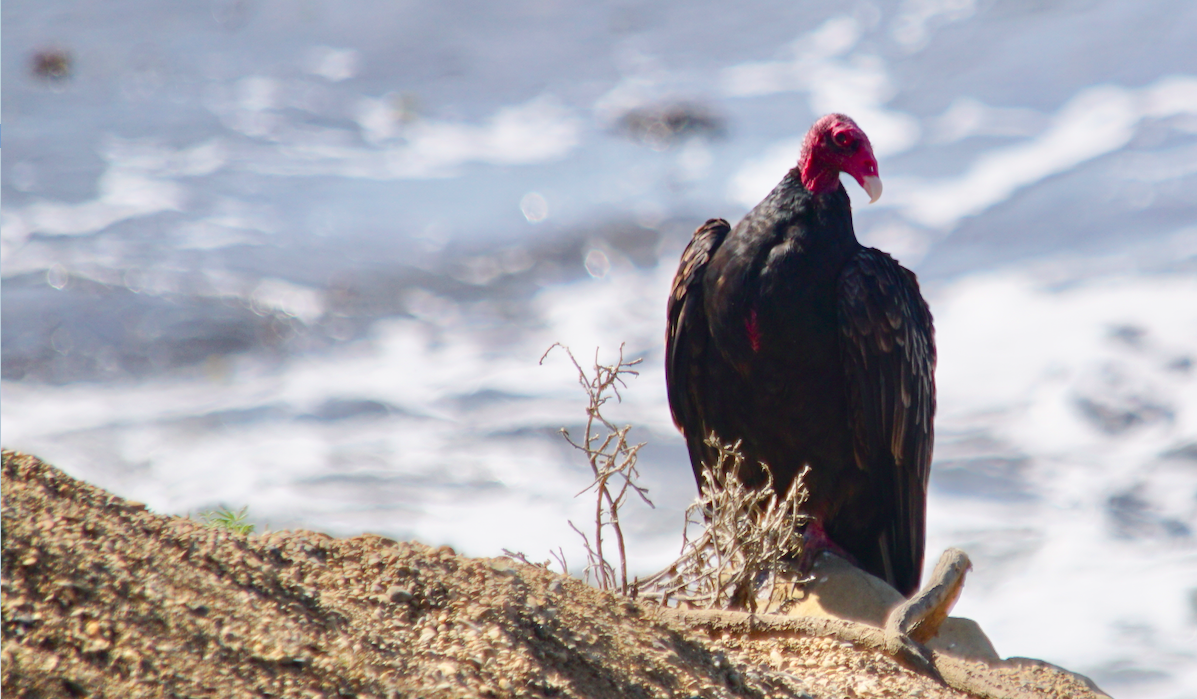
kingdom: Animalia
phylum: Chordata
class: Aves
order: Accipitriformes
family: Cathartidae
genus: Cathartes
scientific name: Cathartes aura
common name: Turkey vulture
